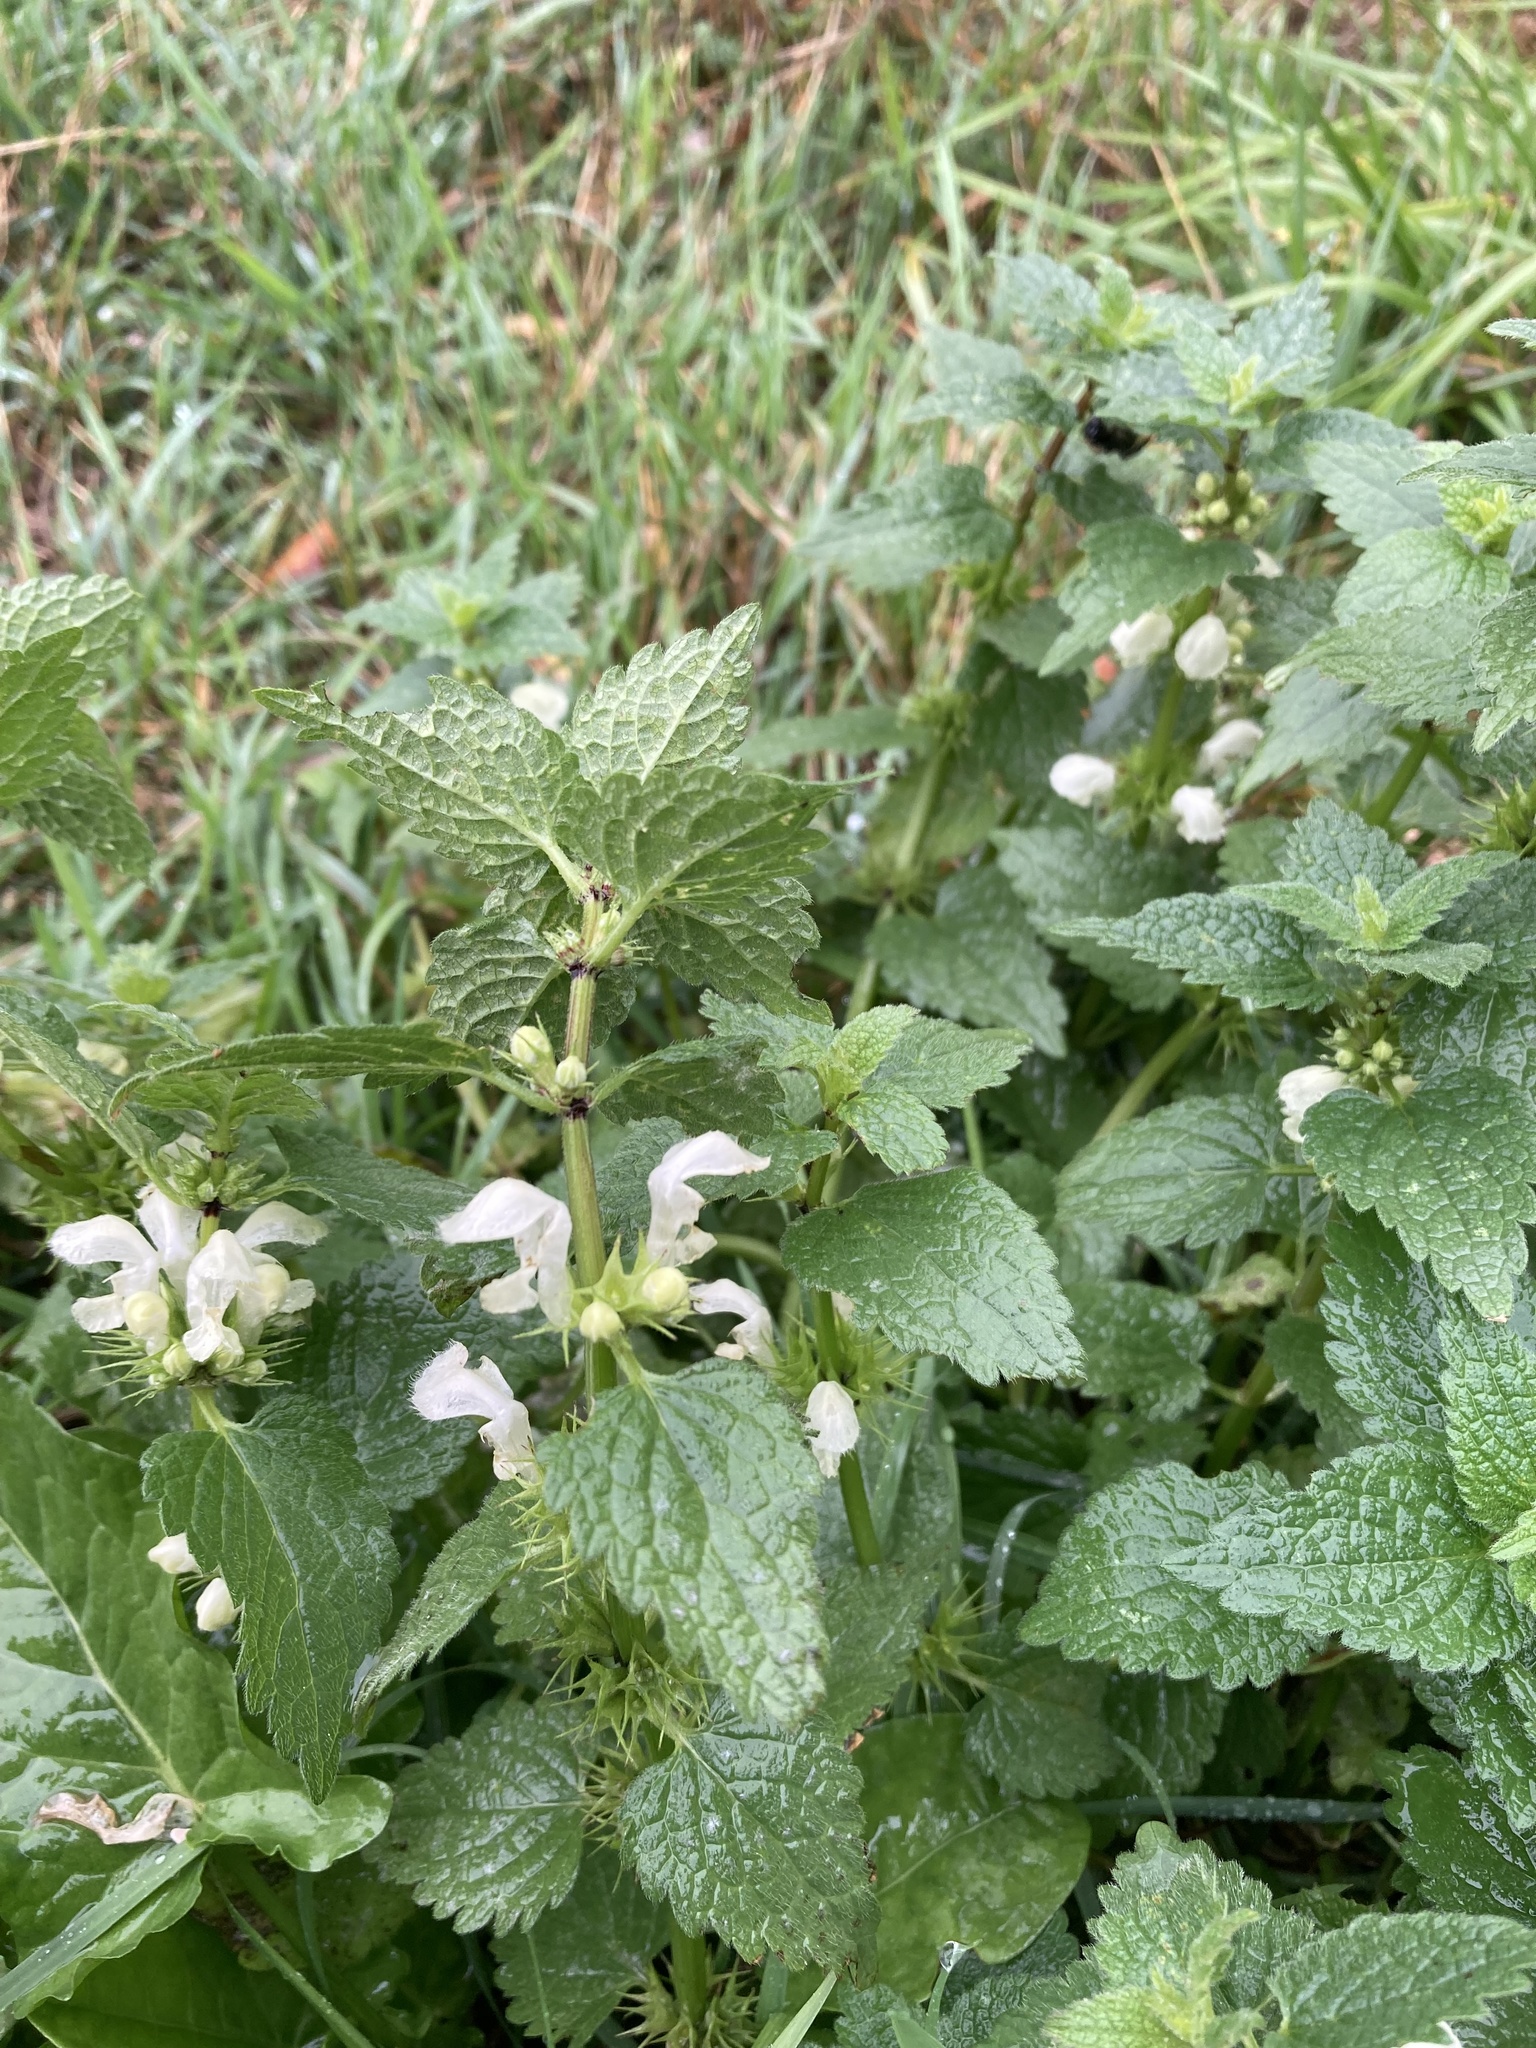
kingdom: Plantae
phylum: Tracheophyta
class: Magnoliopsida
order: Lamiales
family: Lamiaceae
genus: Lamium
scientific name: Lamium album
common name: White dead-nettle
